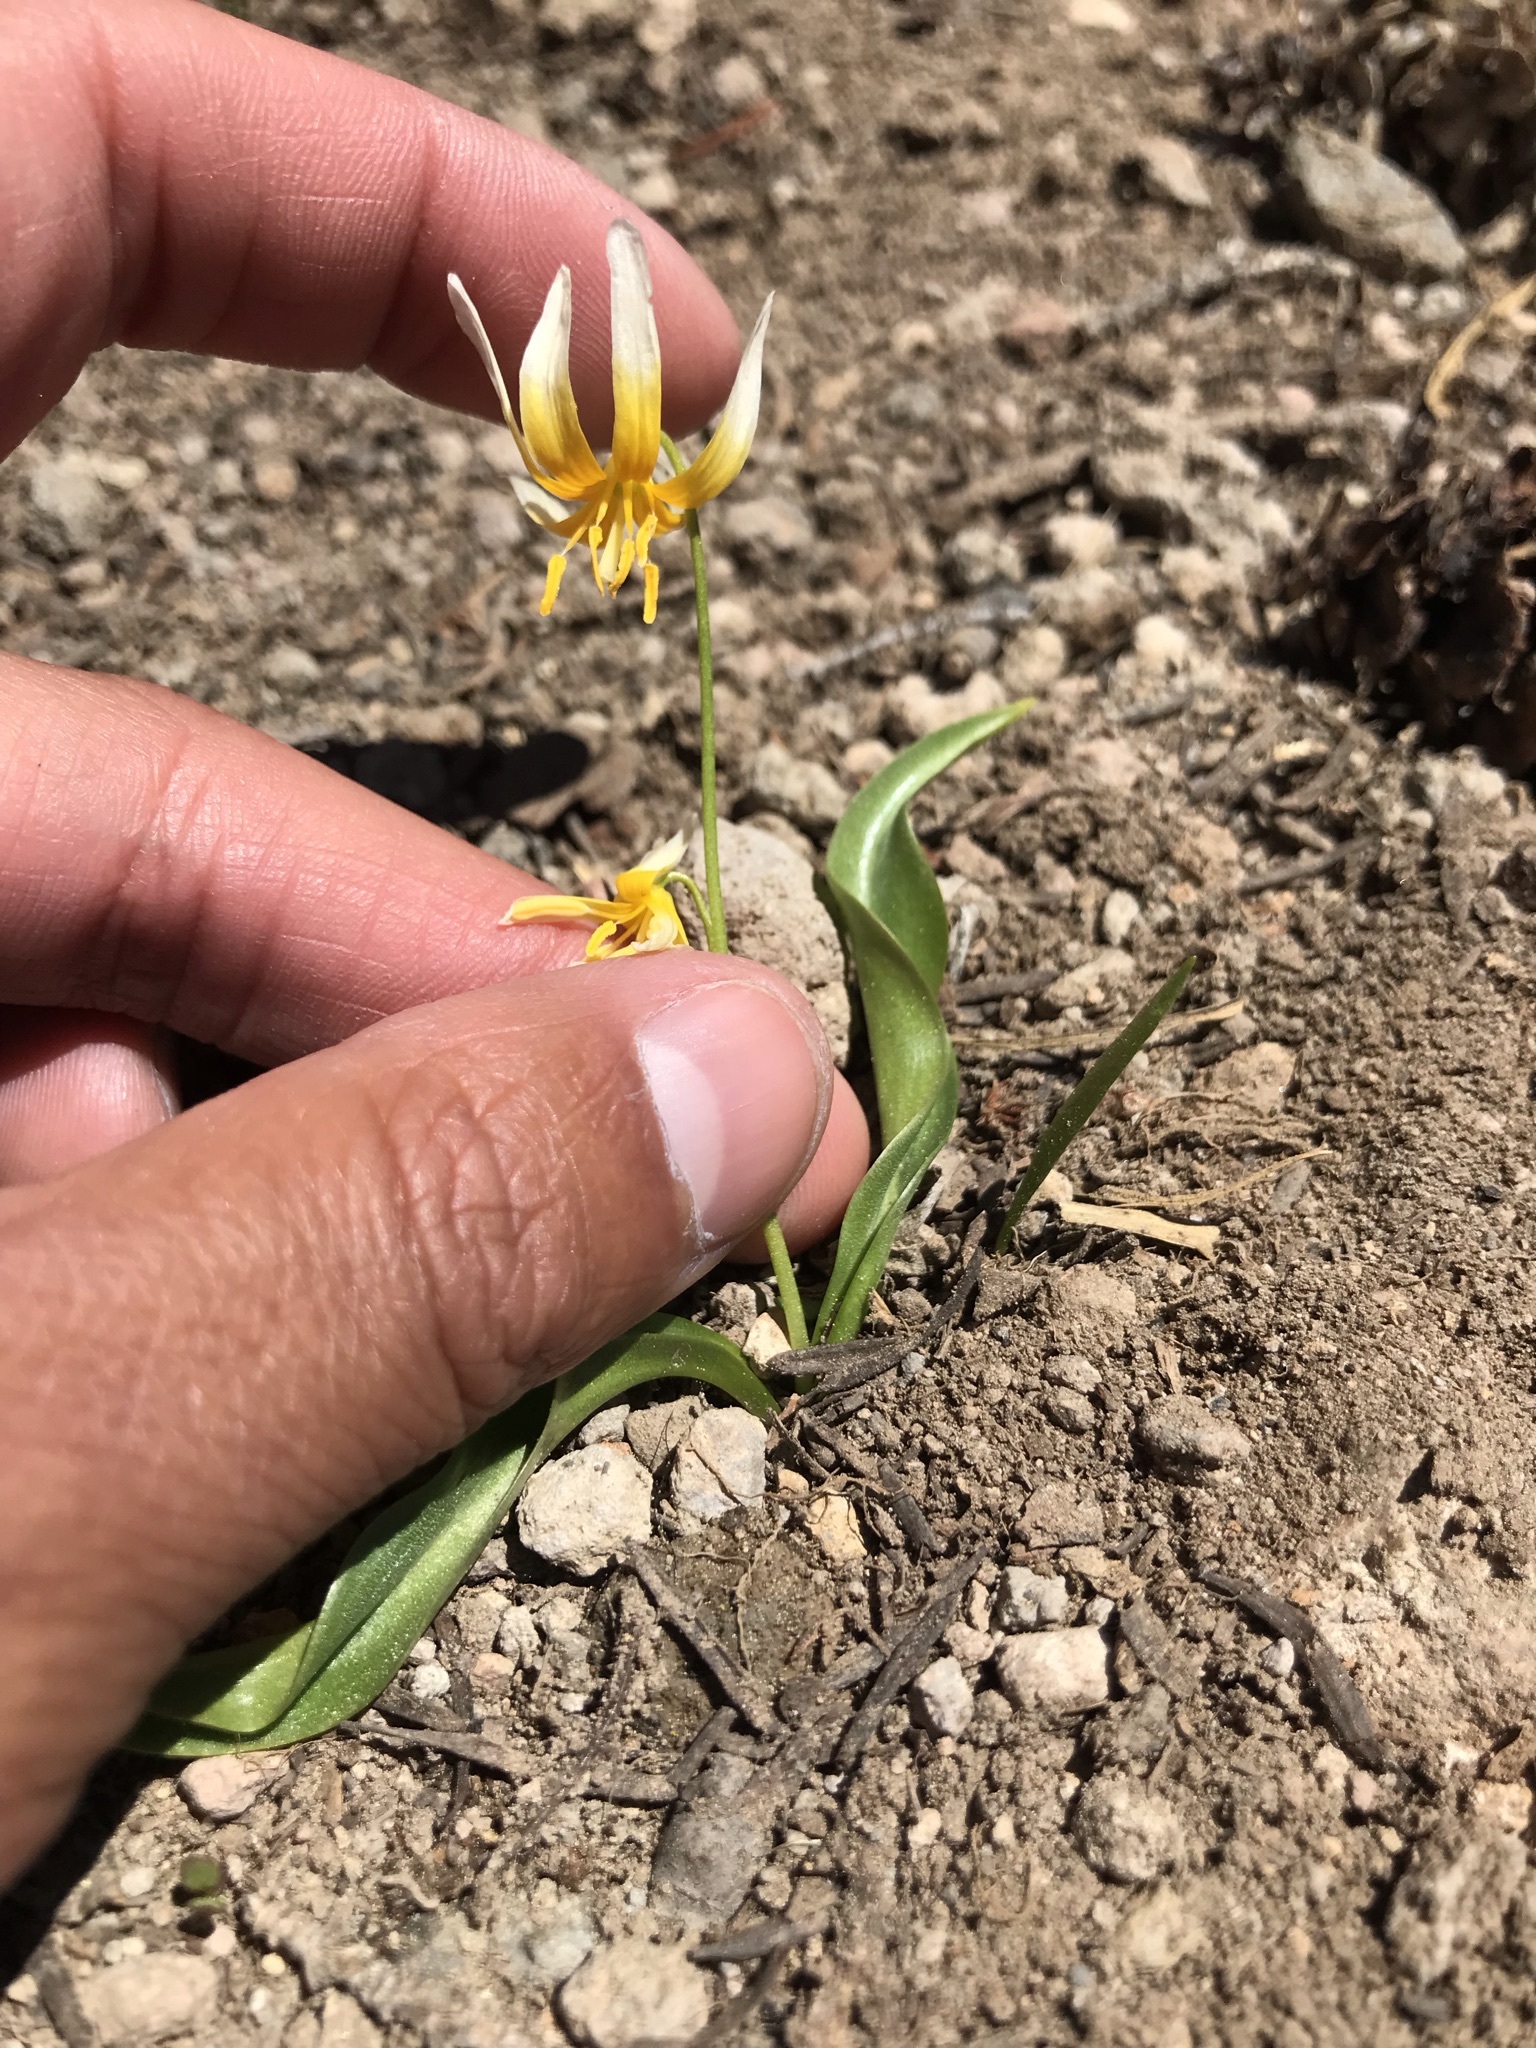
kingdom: Plantae
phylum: Tracheophyta
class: Liliopsida
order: Liliales
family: Liliaceae
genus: Erythronium
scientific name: Erythronium purpurascens
